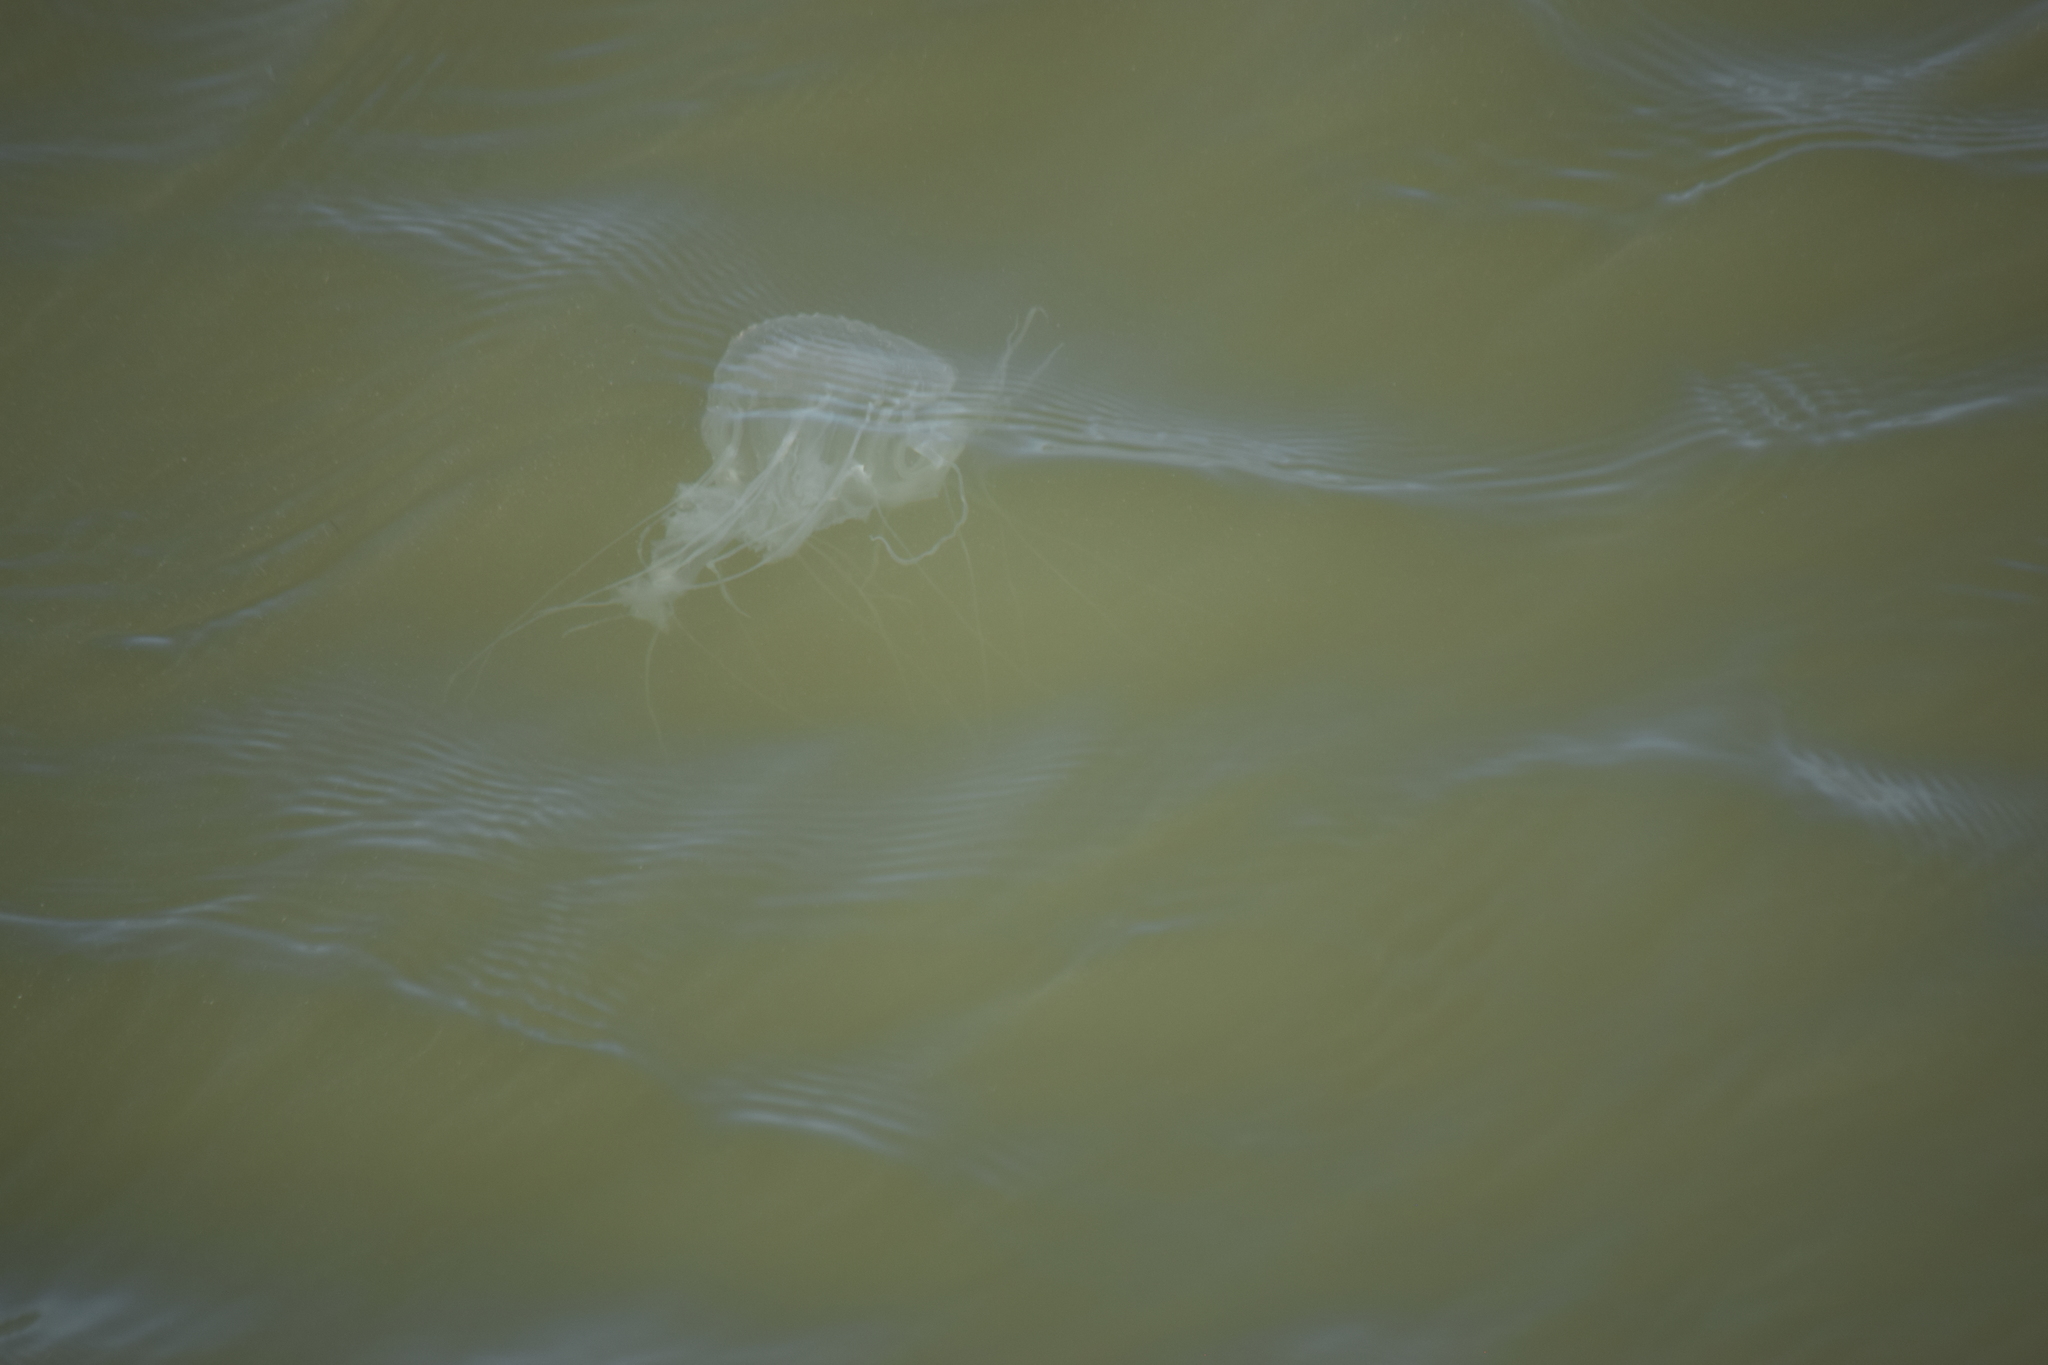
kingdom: Animalia
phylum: Cnidaria
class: Scyphozoa
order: Semaeostomeae
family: Pelagiidae
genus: Chrysaora
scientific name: Chrysaora chesapeakei
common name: Bay nettle
